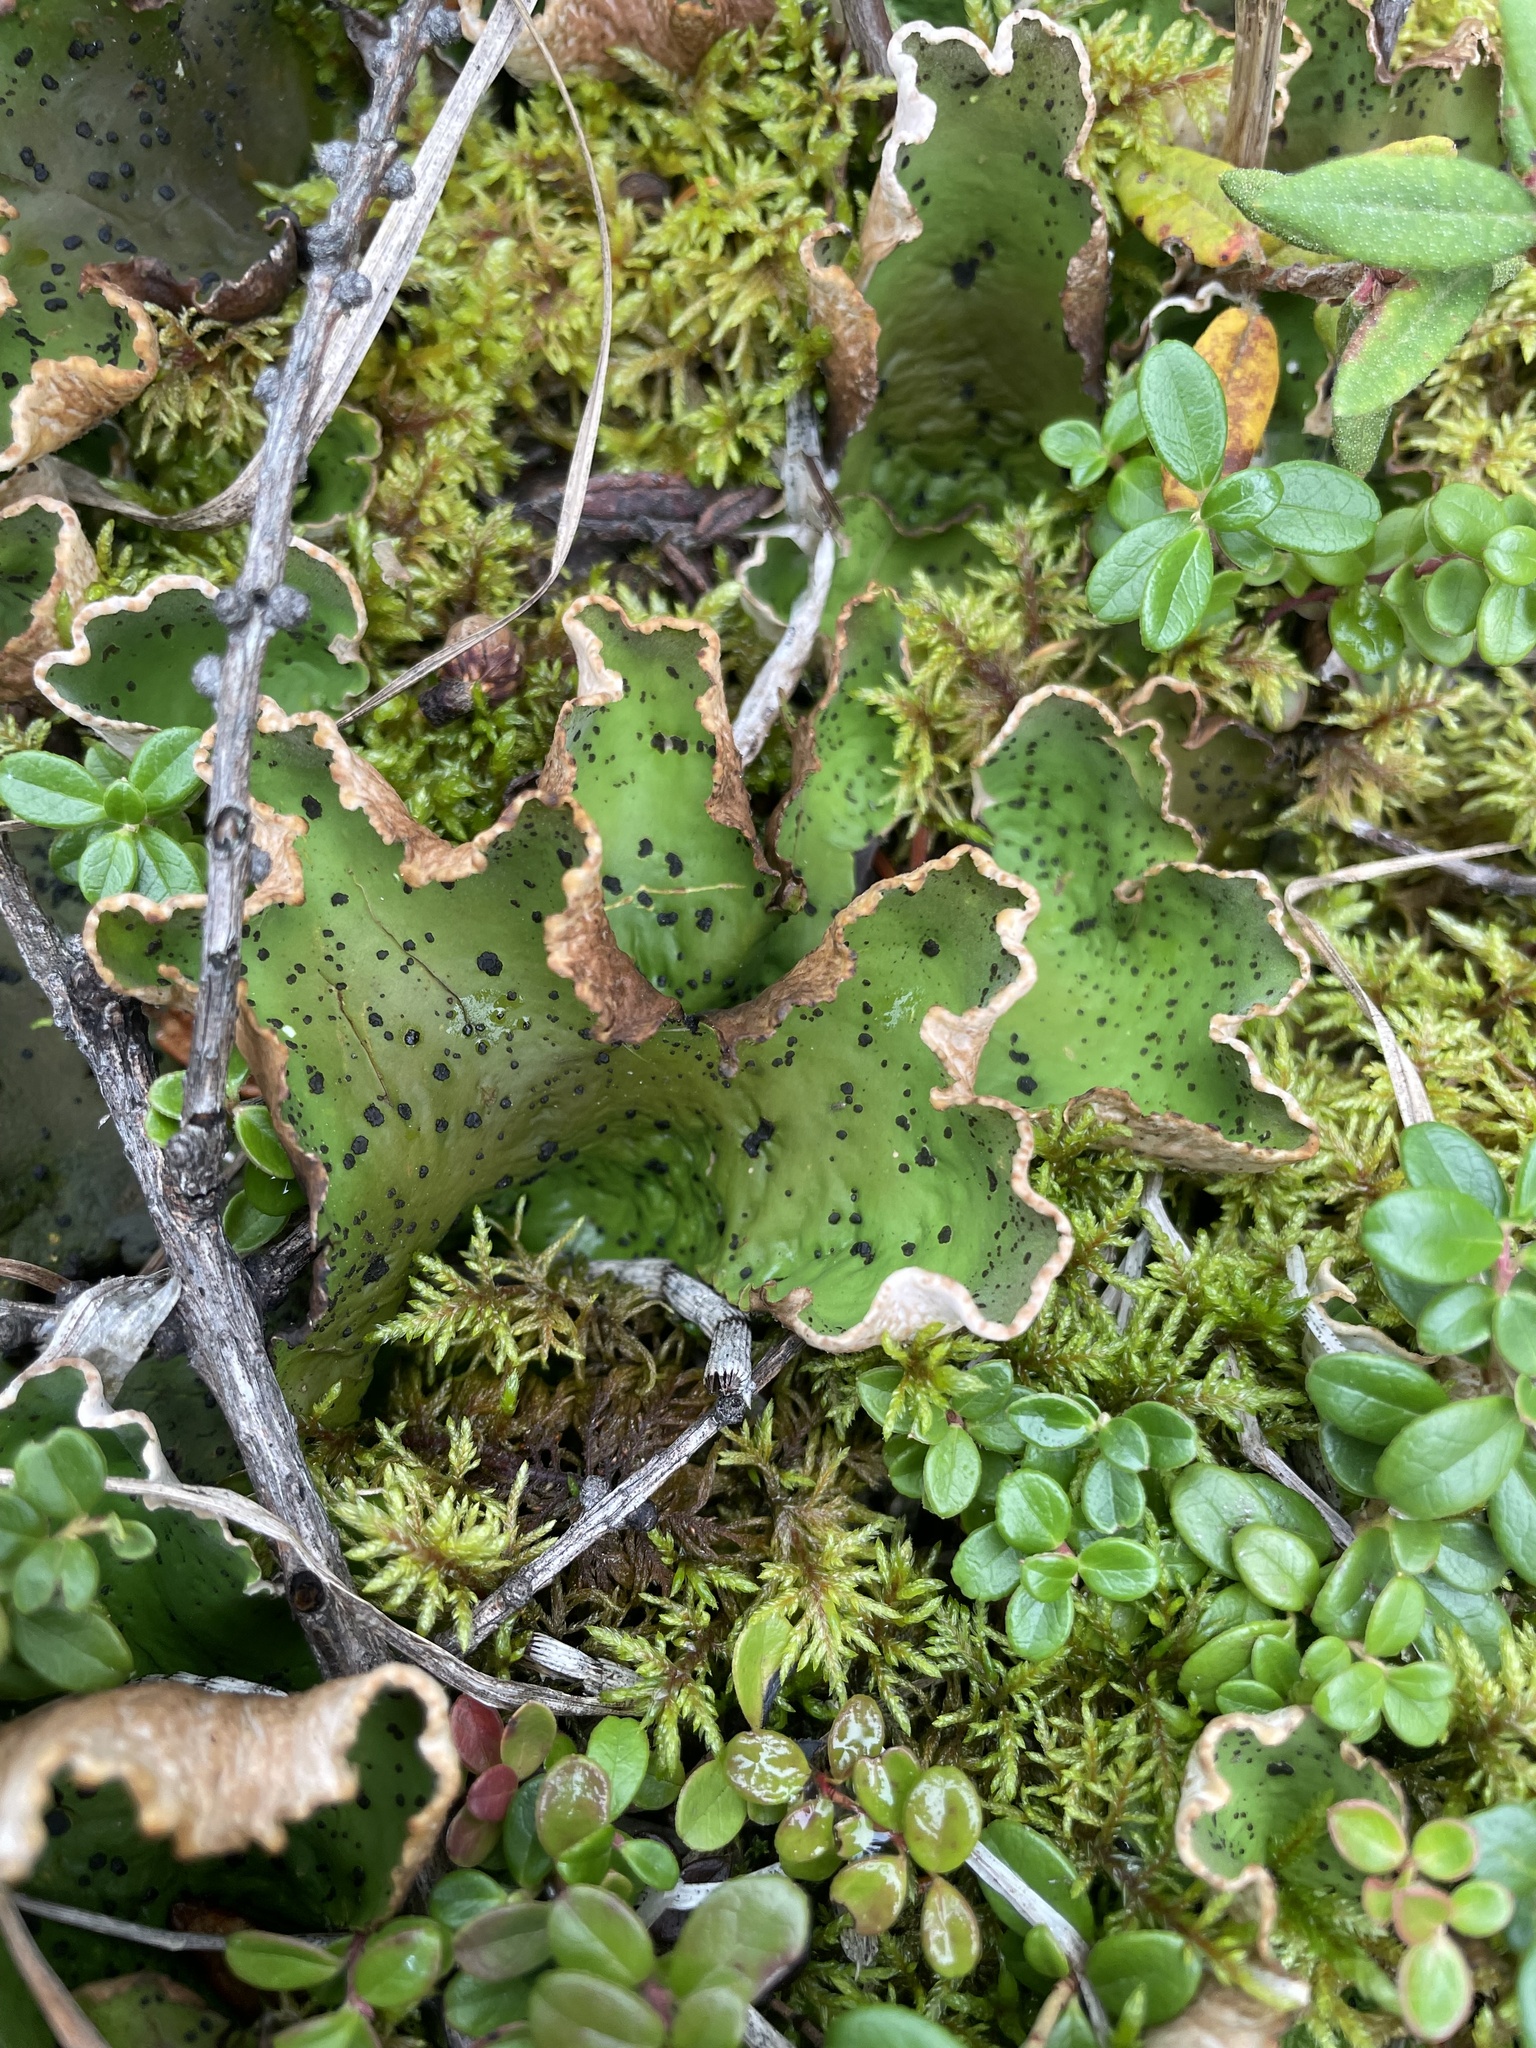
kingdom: Fungi
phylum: Ascomycota
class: Lecanoromycetes
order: Peltigerales
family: Peltigeraceae
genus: Peltigera
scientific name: Peltigera aphthosa
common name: Common freckle pelt lichen
